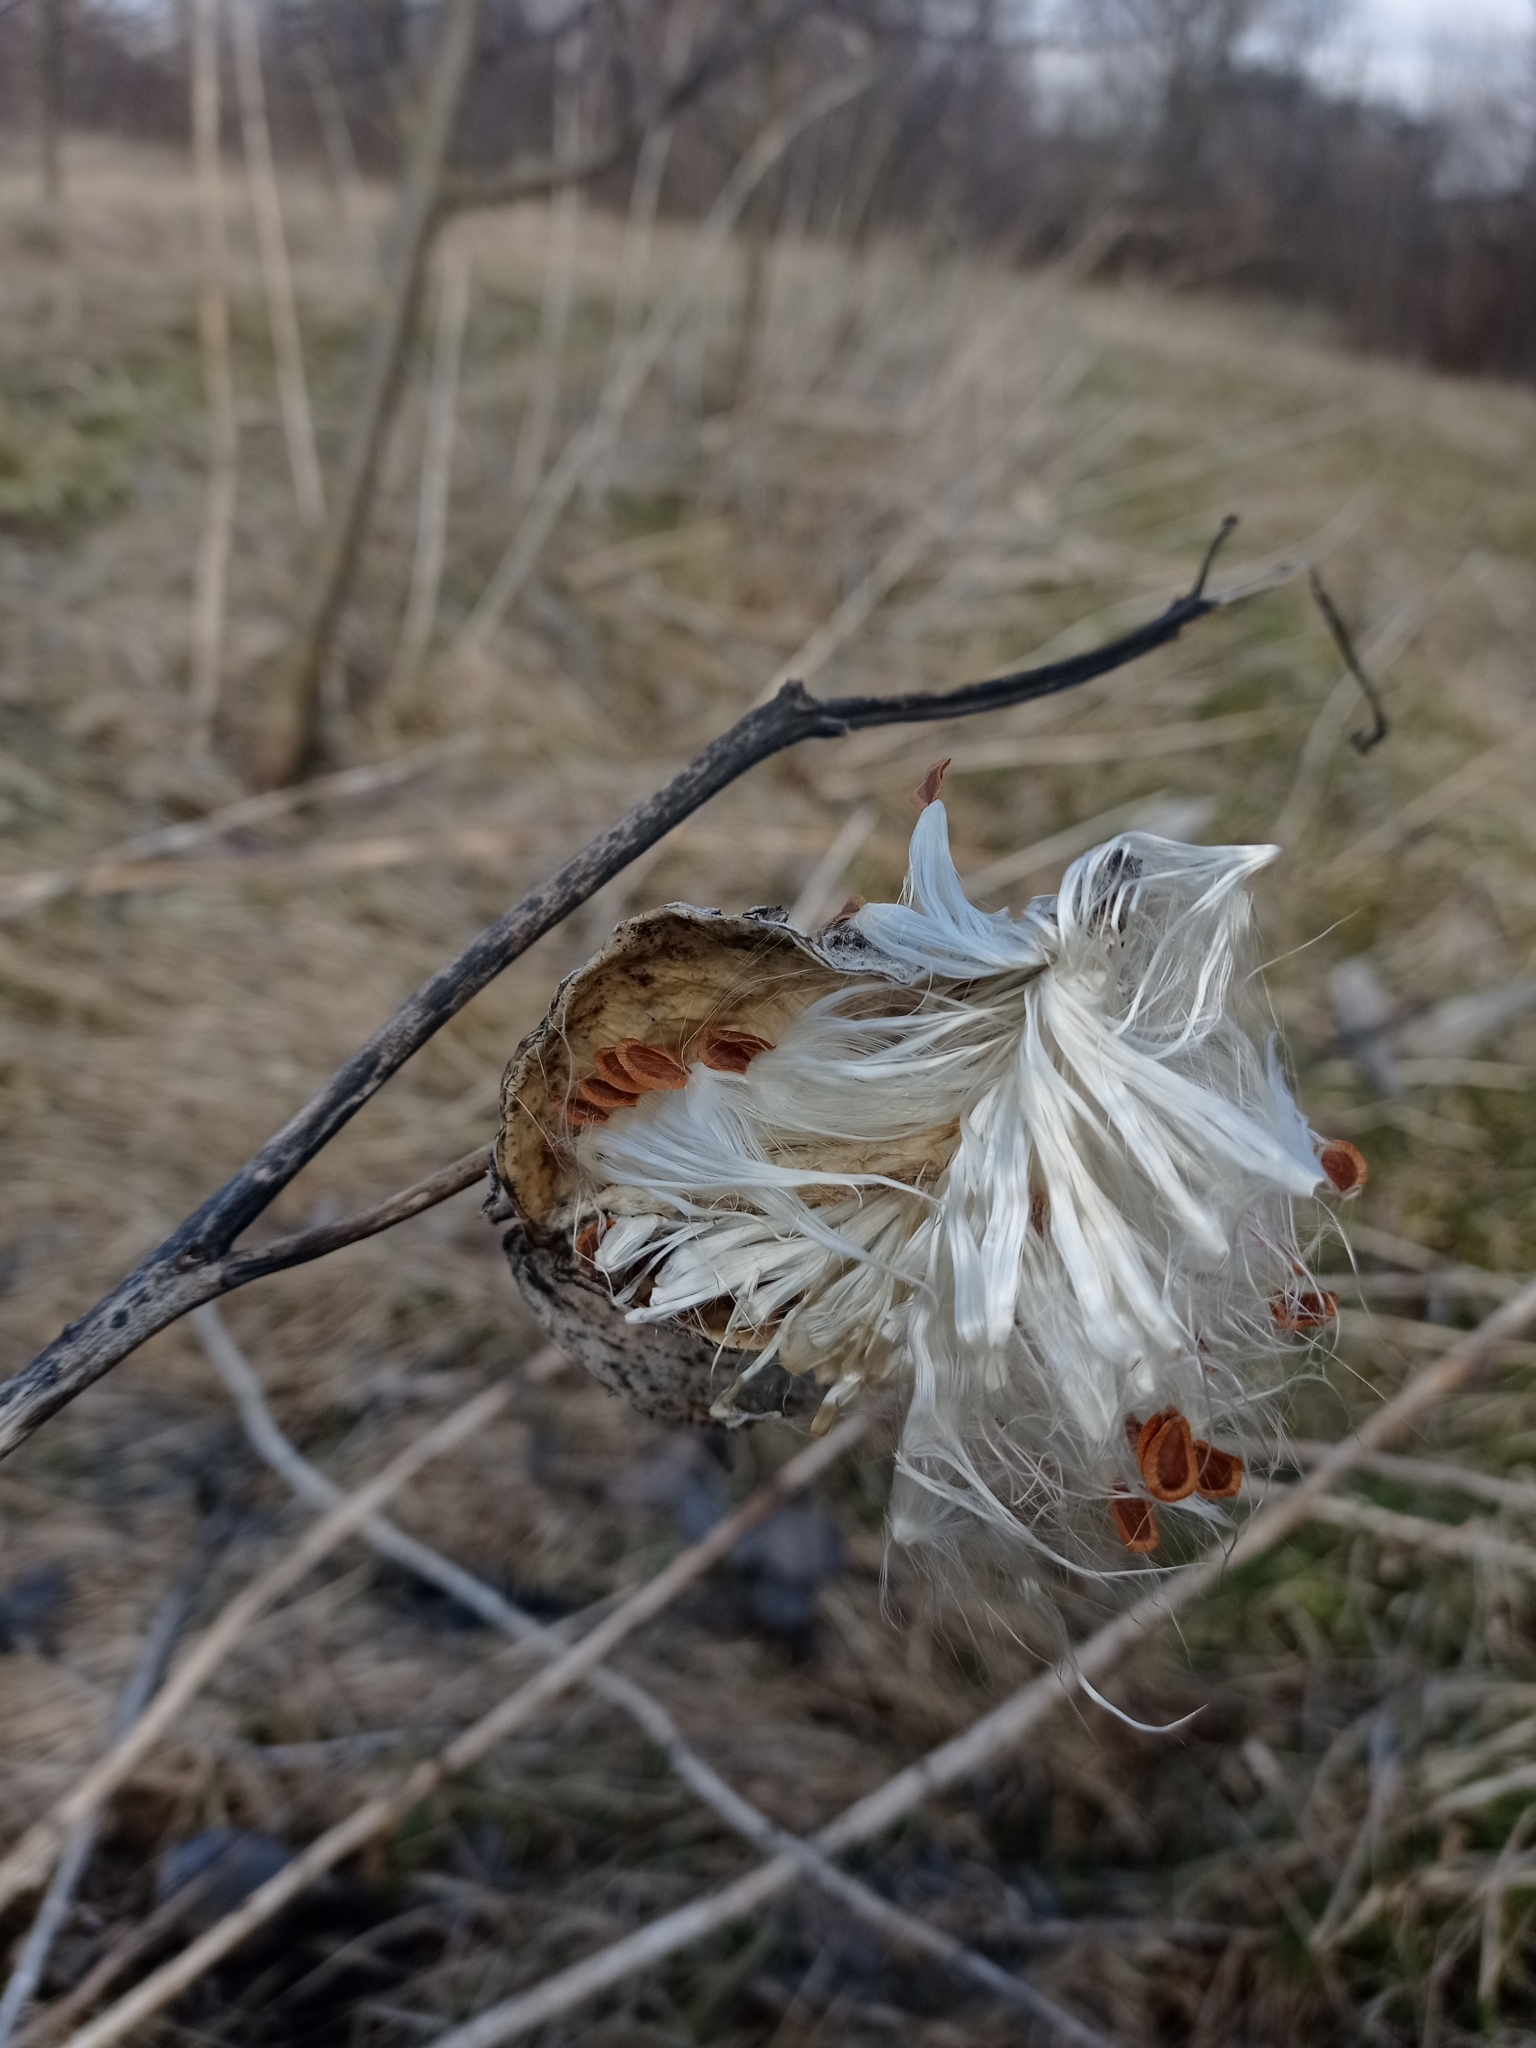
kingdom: Plantae
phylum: Tracheophyta
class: Magnoliopsida
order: Gentianales
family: Apocynaceae
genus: Asclepias
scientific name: Asclepias syriaca
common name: Common milkweed
